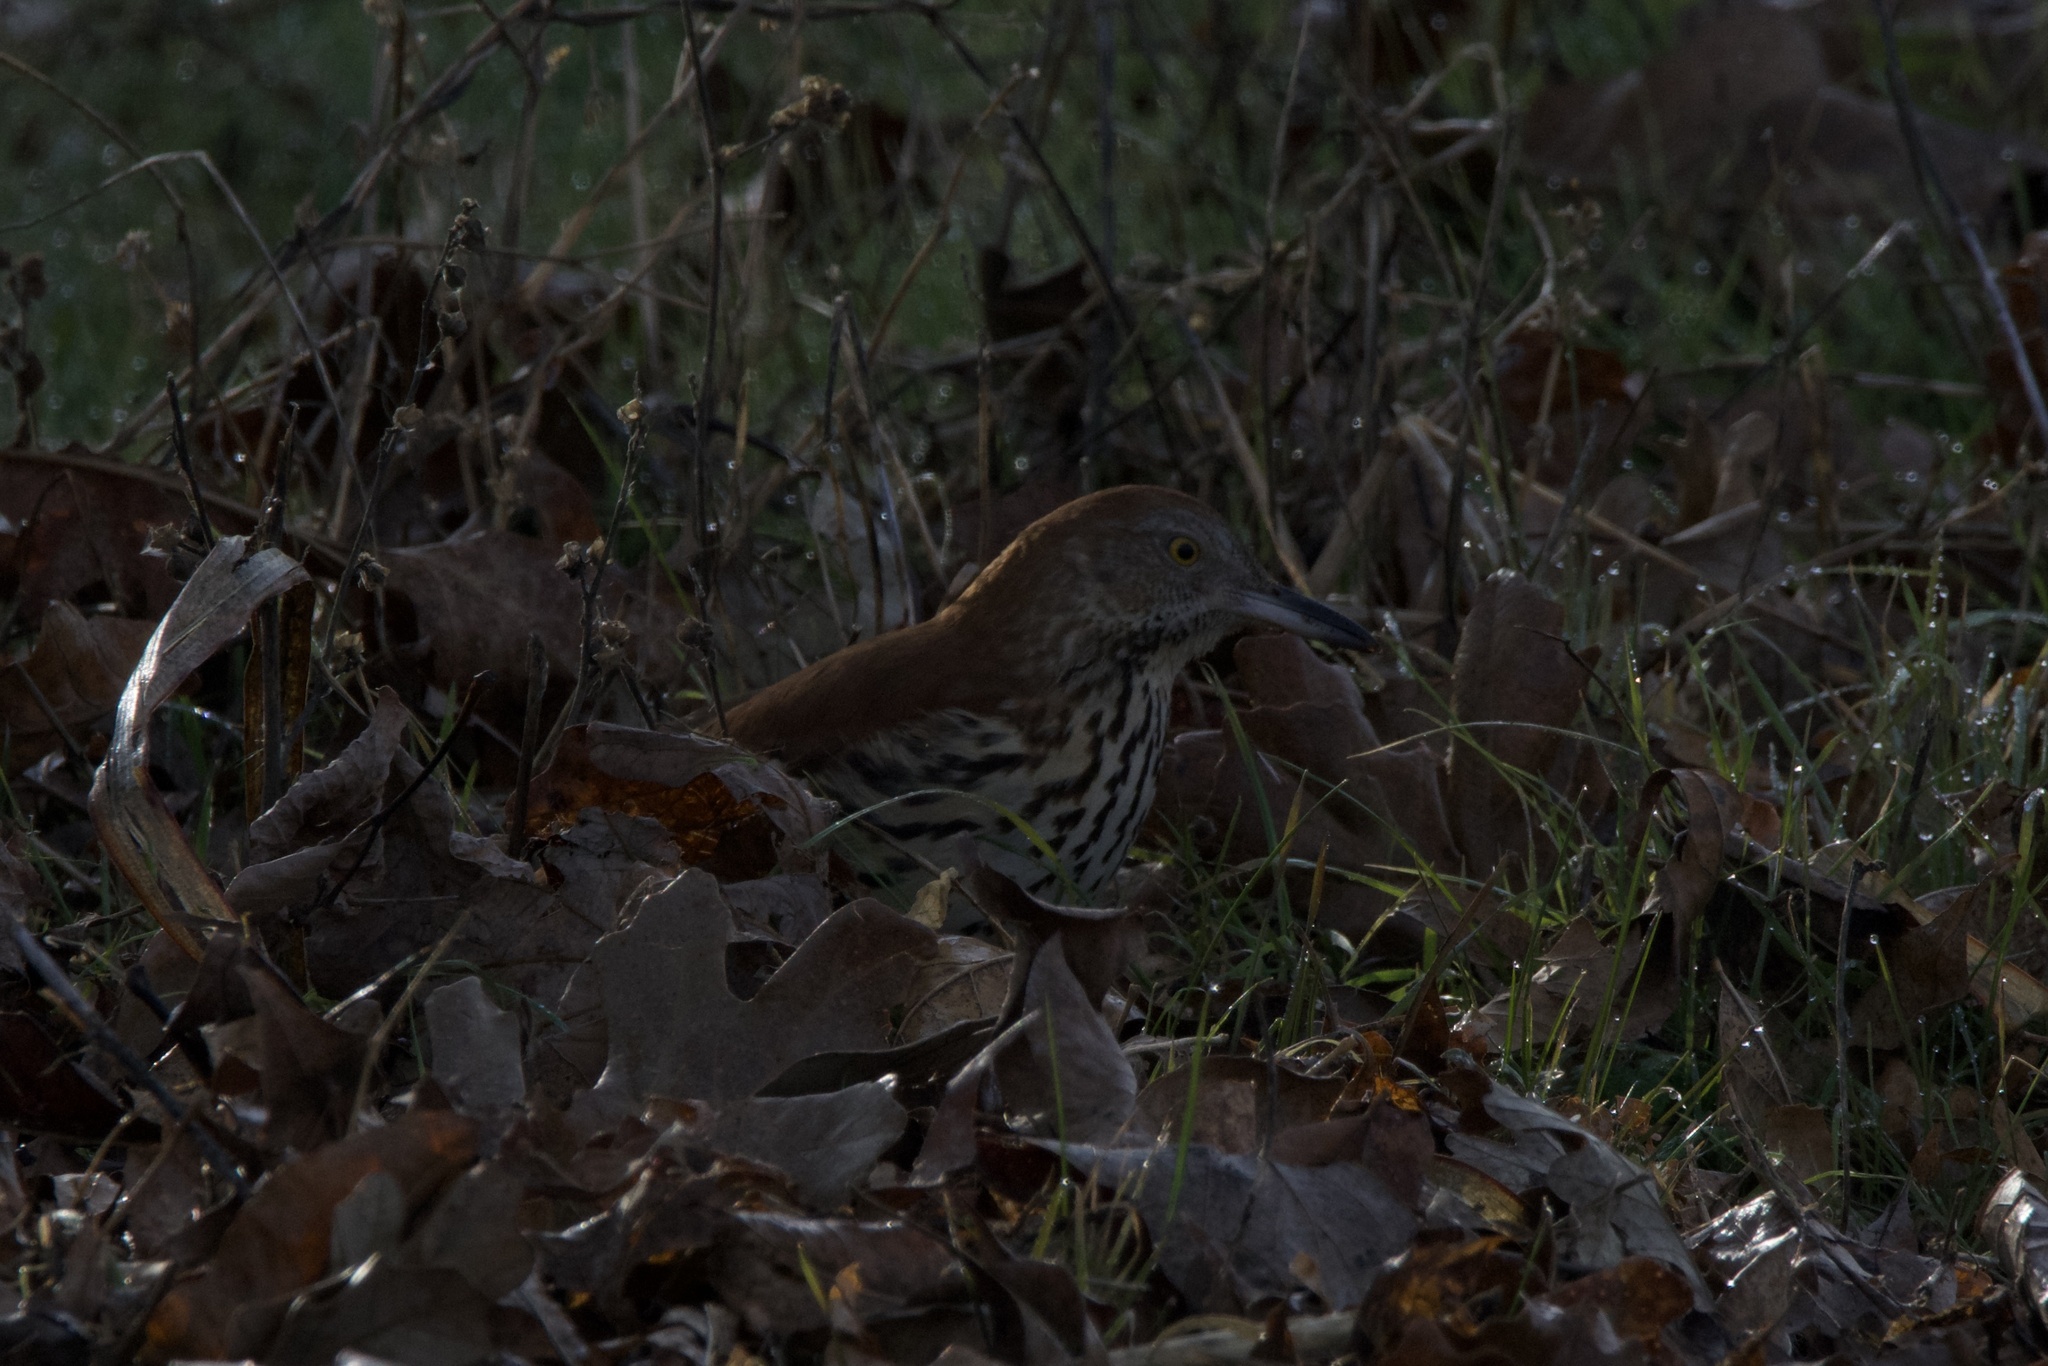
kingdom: Animalia
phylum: Chordata
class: Aves
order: Passeriformes
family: Mimidae
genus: Toxostoma
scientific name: Toxostoma rufum
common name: Brown thrasher
